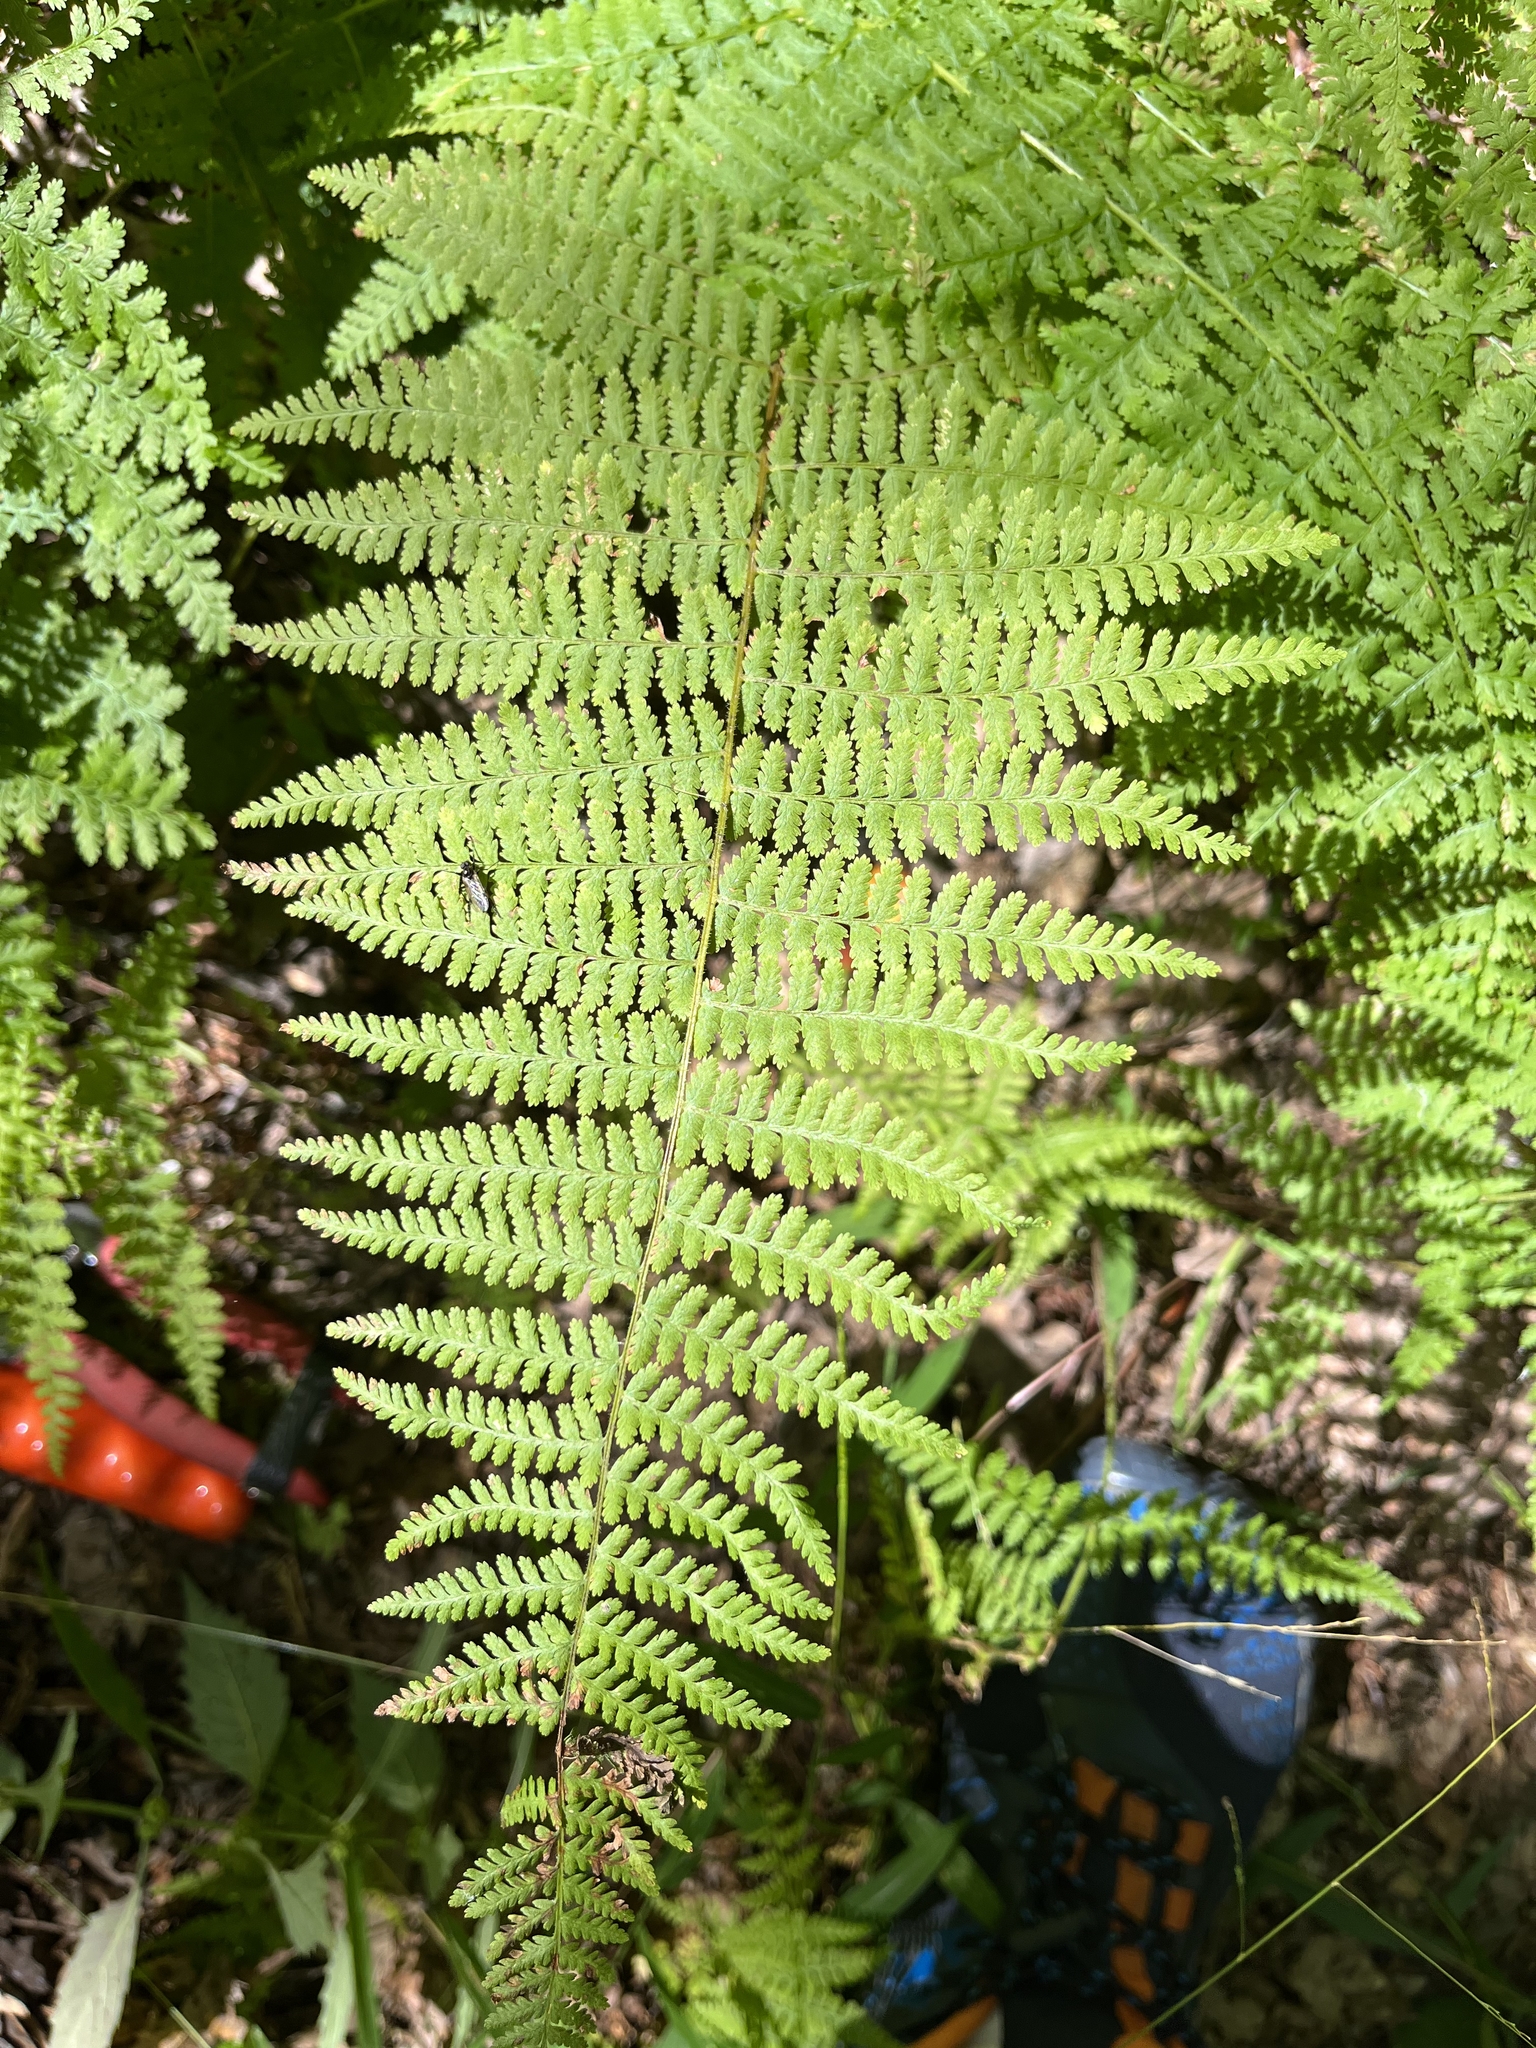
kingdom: Plantae
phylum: Tracheophyta
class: Polypodiopsida
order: Polypodiales
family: Dennstaedtiaceae
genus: Sitobolium
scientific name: Sitobolium punctilobum
